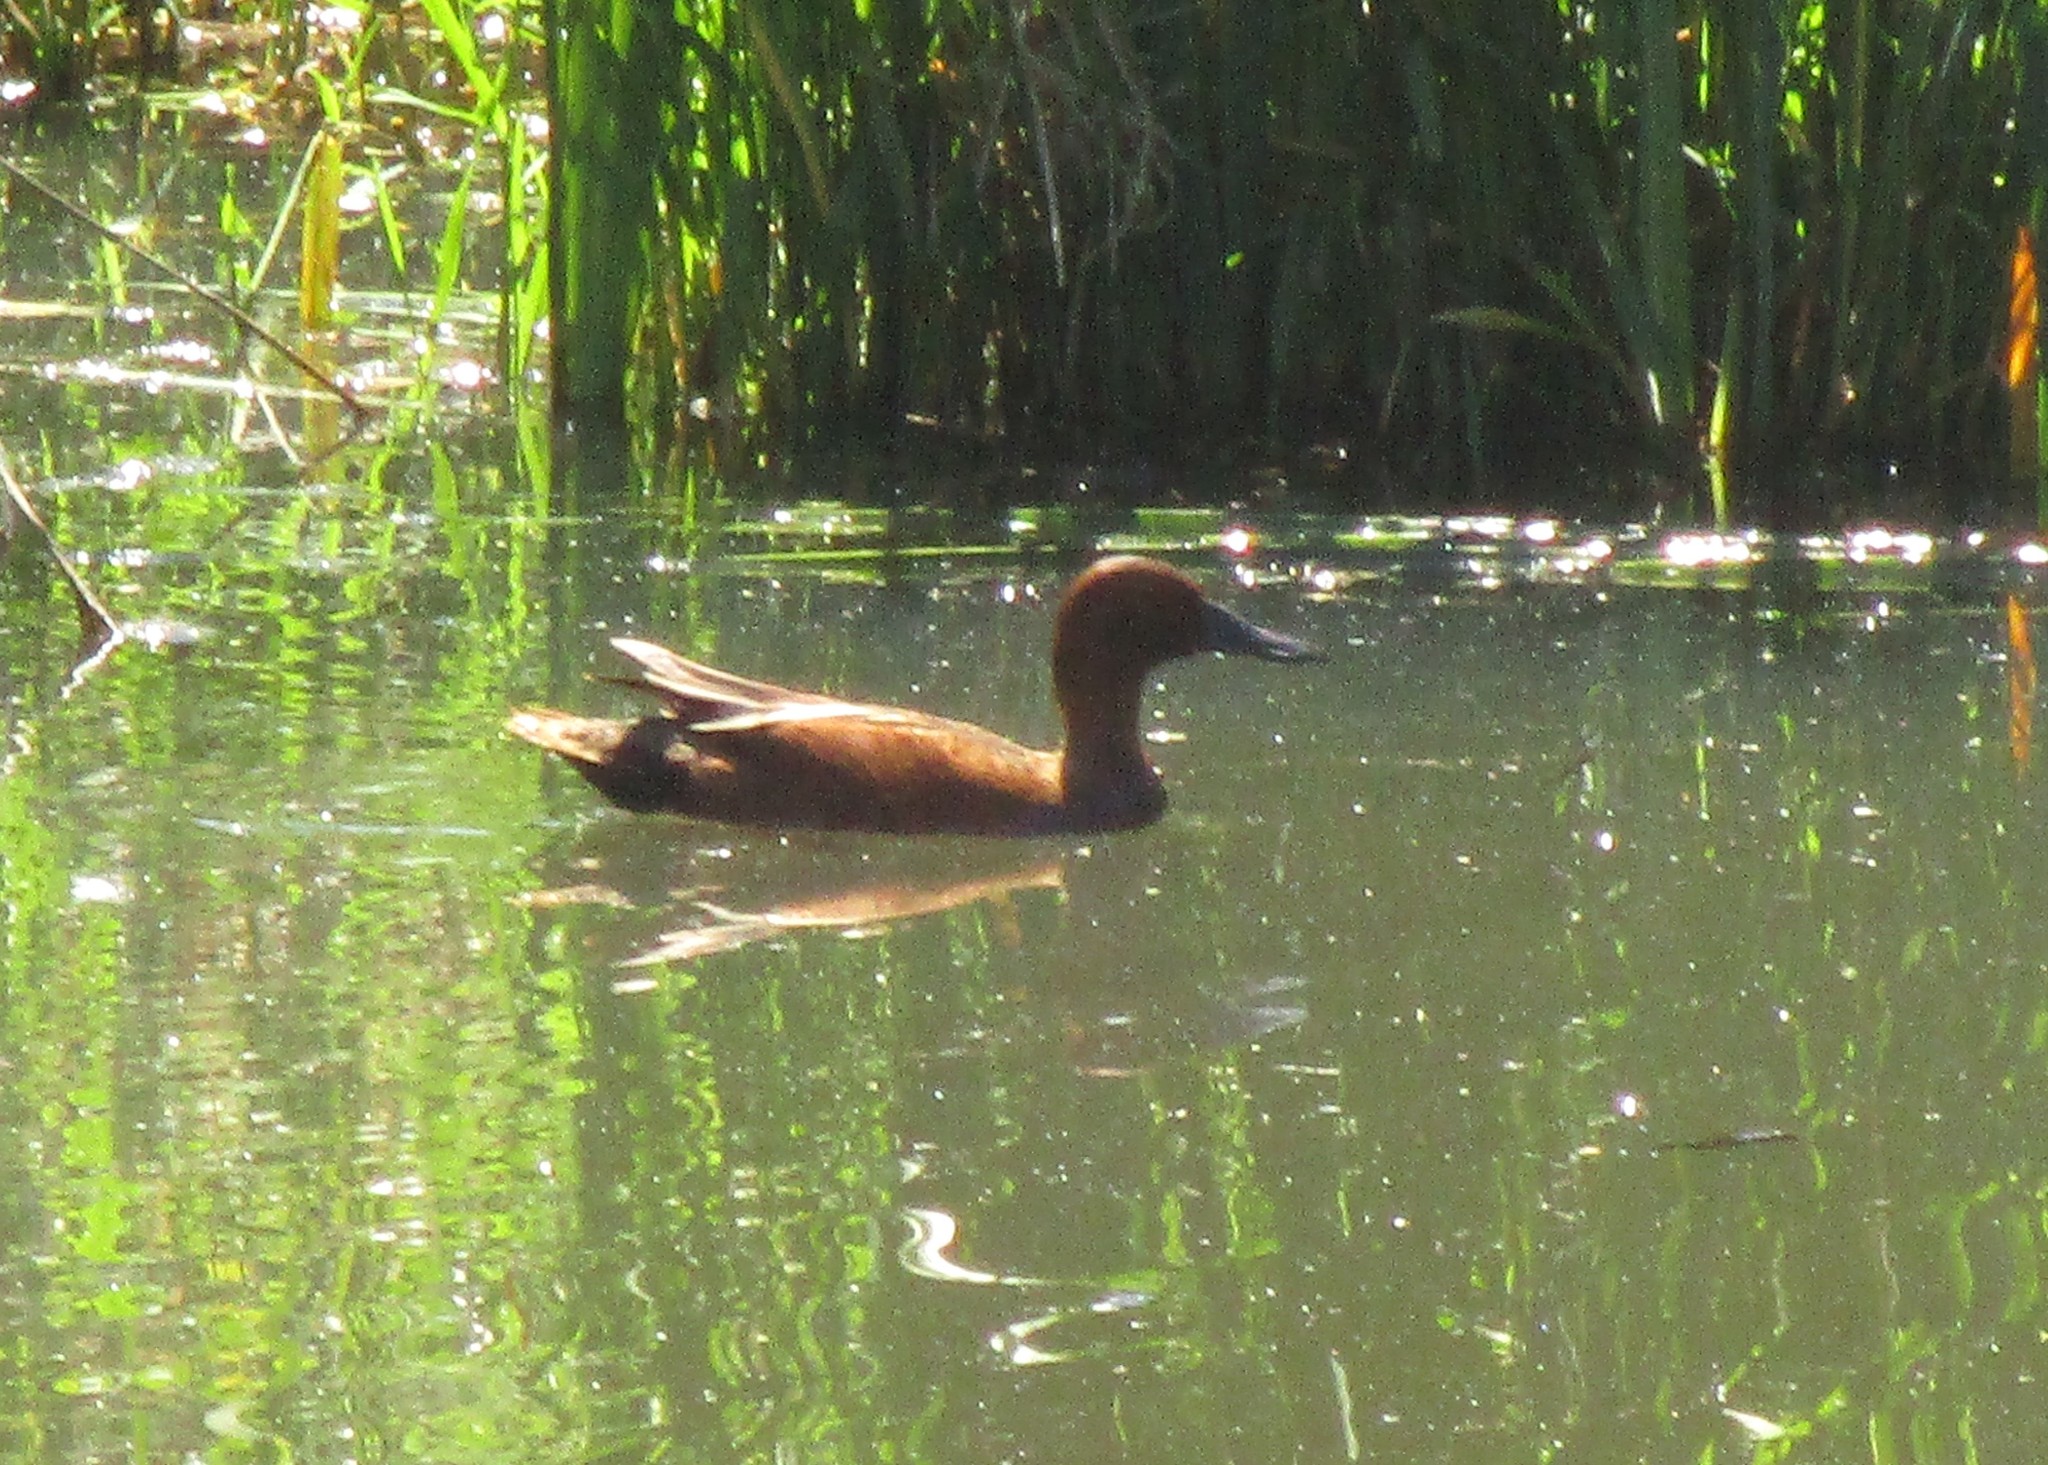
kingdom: Animalia
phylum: Chordata
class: Aves
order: Anseriformes
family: Anatidae
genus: Spatula
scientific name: Spatula cyanoptera
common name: Cinnamon teal
